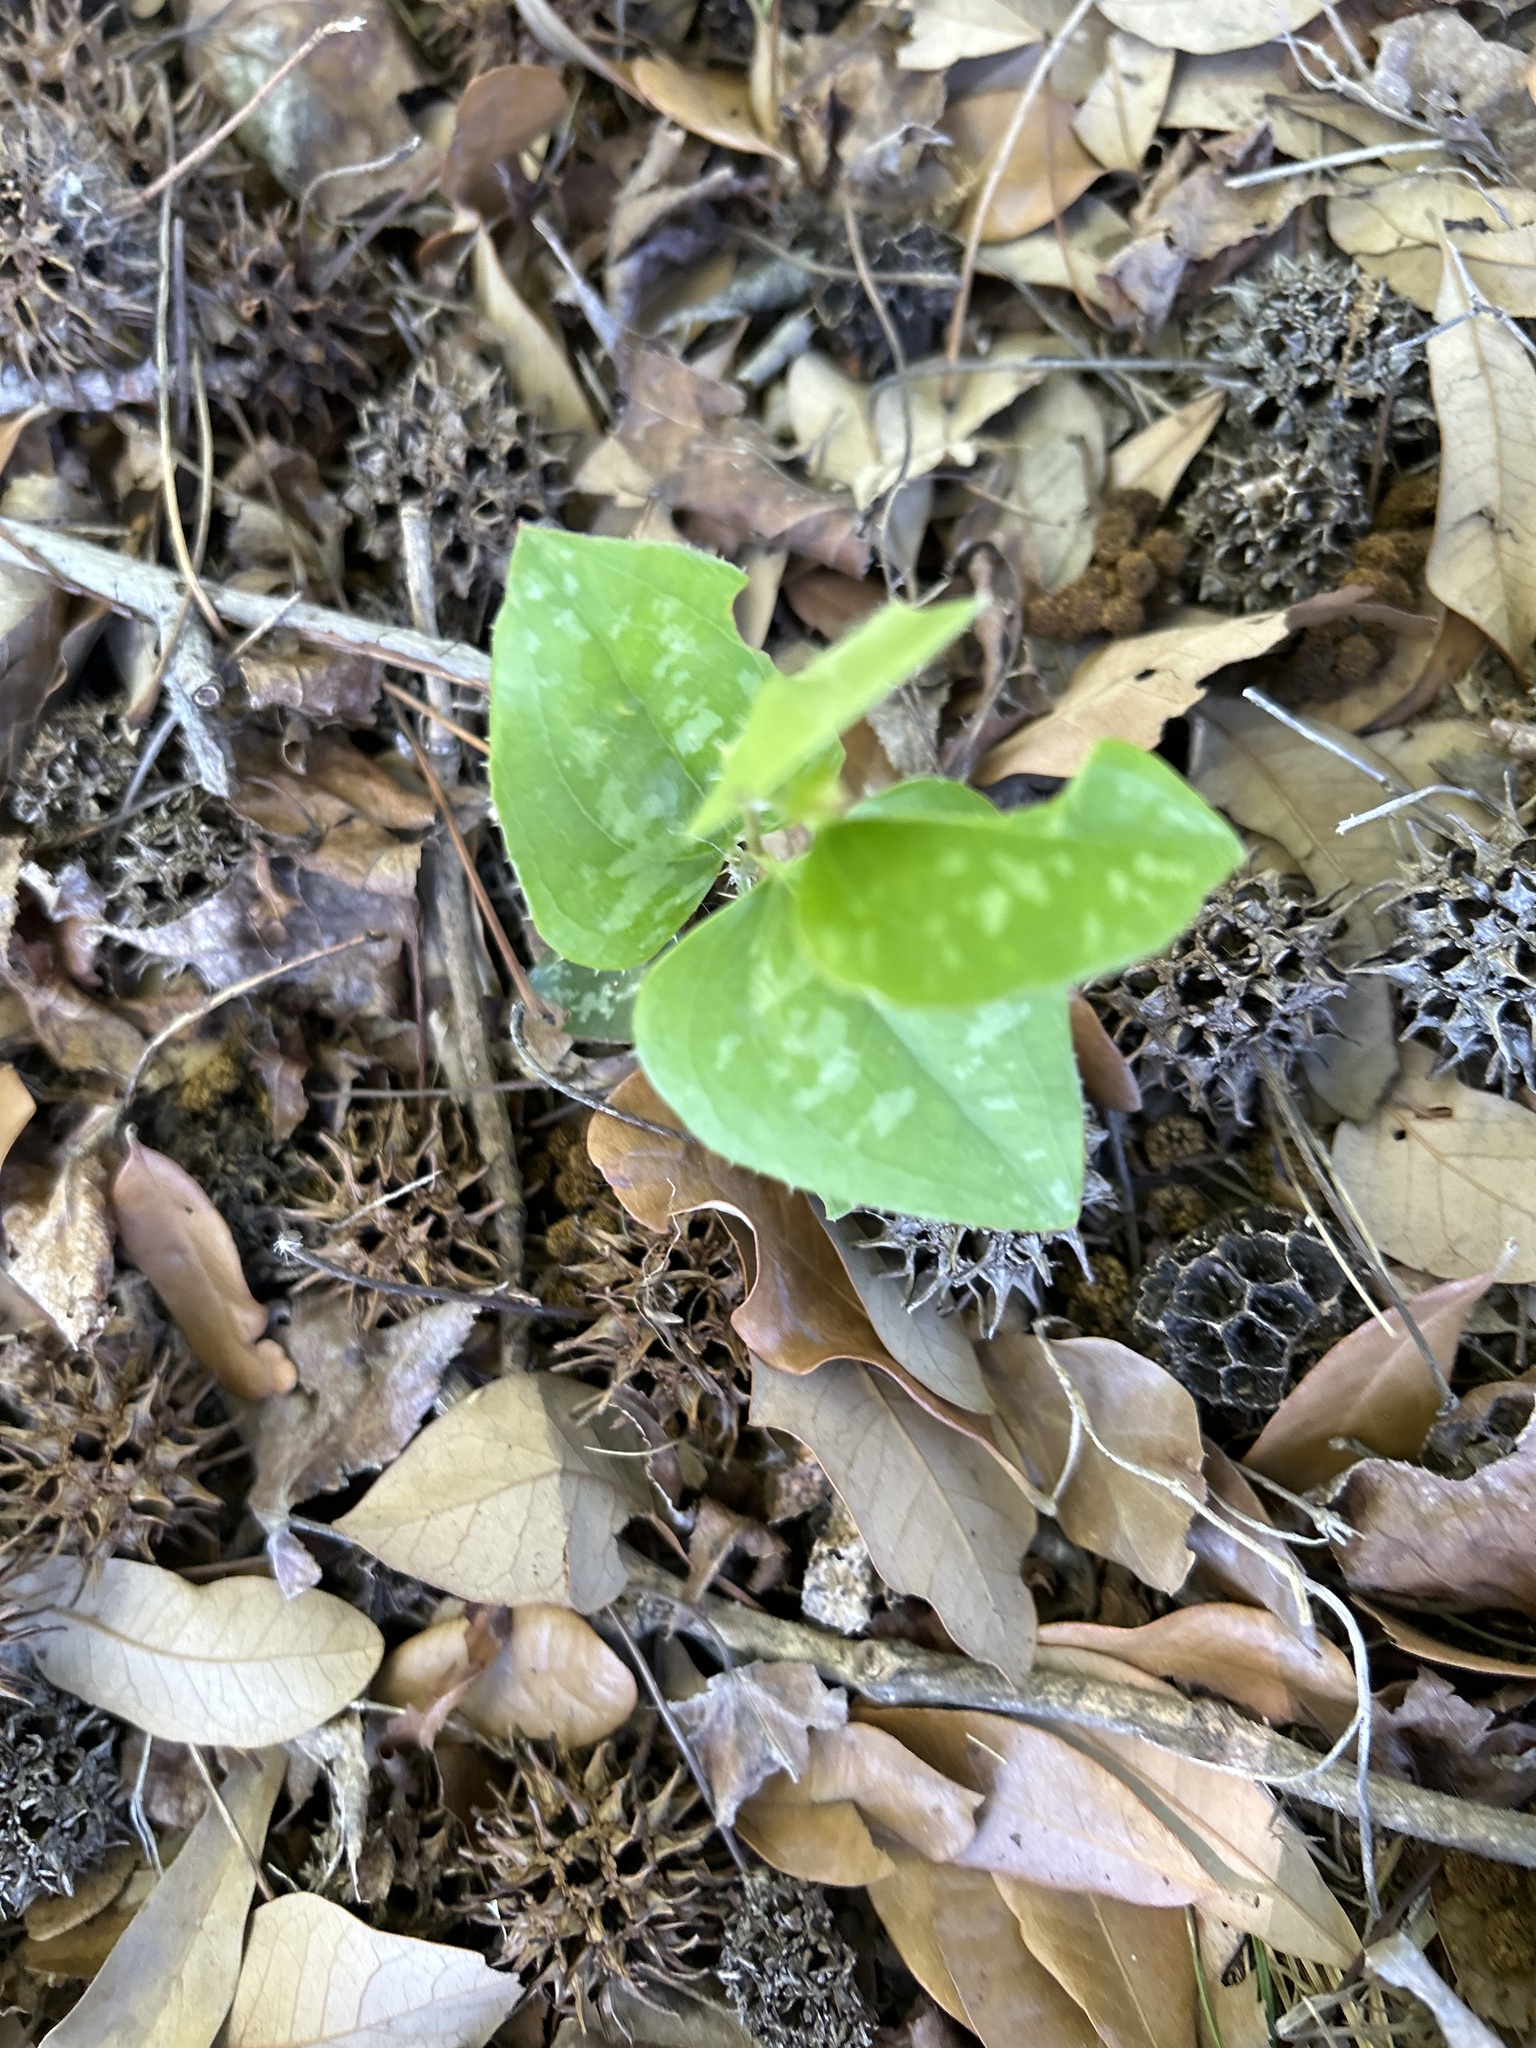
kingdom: Plantae
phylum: Tracheophyta
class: Liliopsida
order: Liliales
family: Smilacaceae
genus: Smilax
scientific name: Smilax bona-nox
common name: Catbrier
